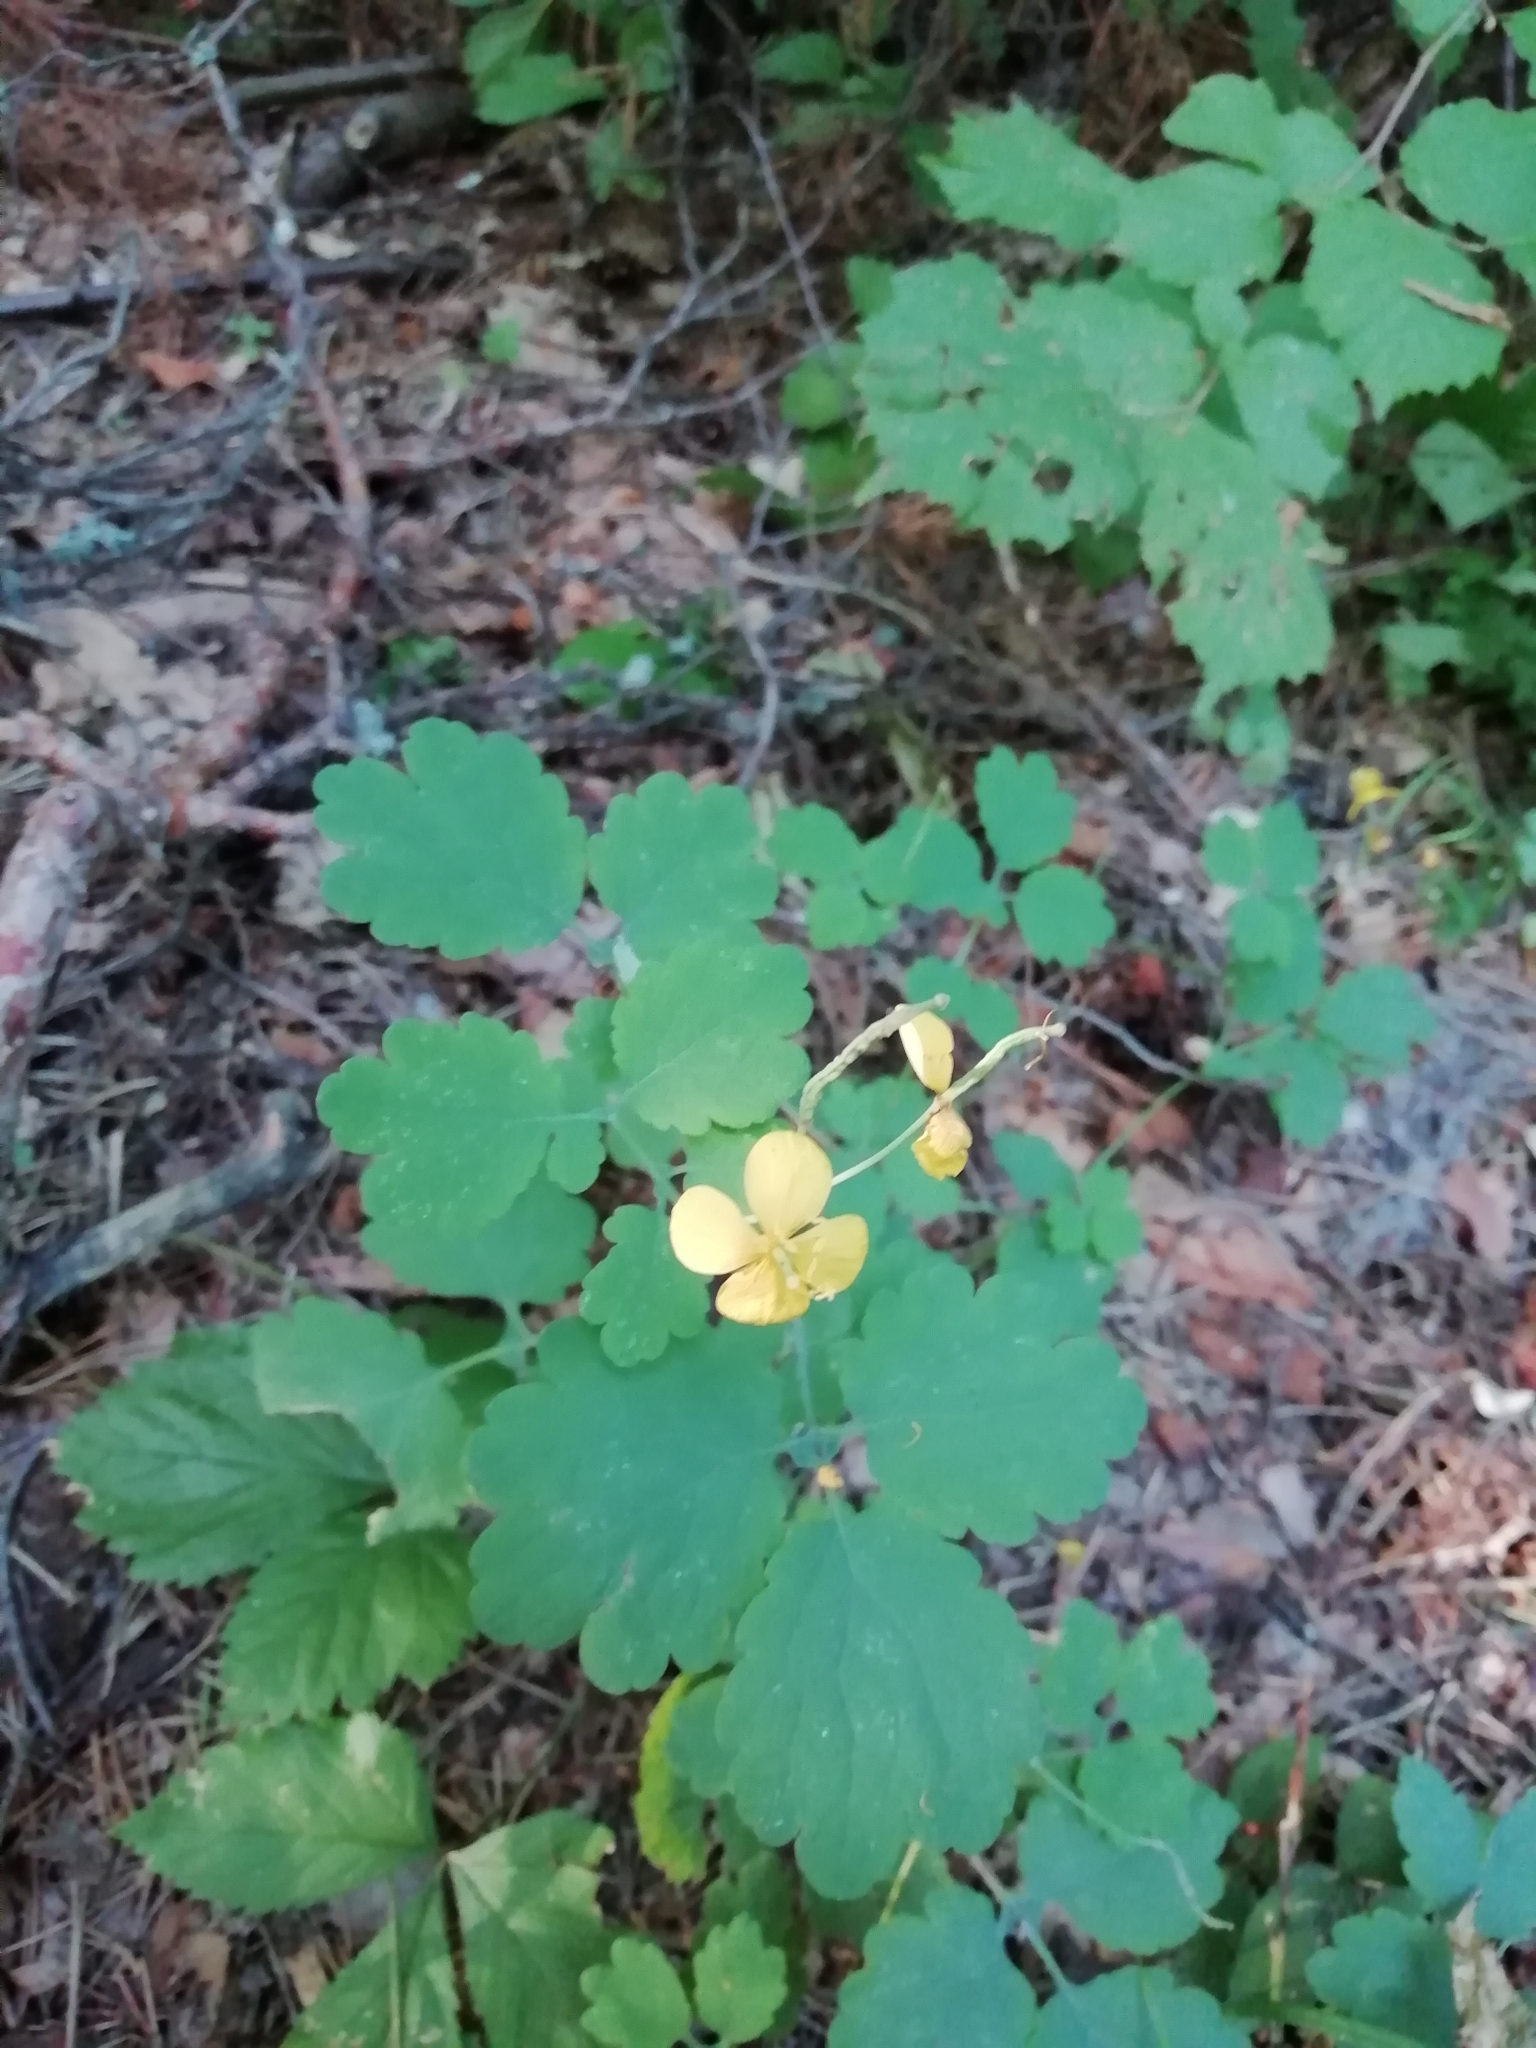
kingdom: Plantae
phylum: Tracheophyta
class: Magnoliopsida
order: Ranunculales
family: Papaveraceae
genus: Chelidonium
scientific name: Chelidonium majus
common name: Greater celandine
